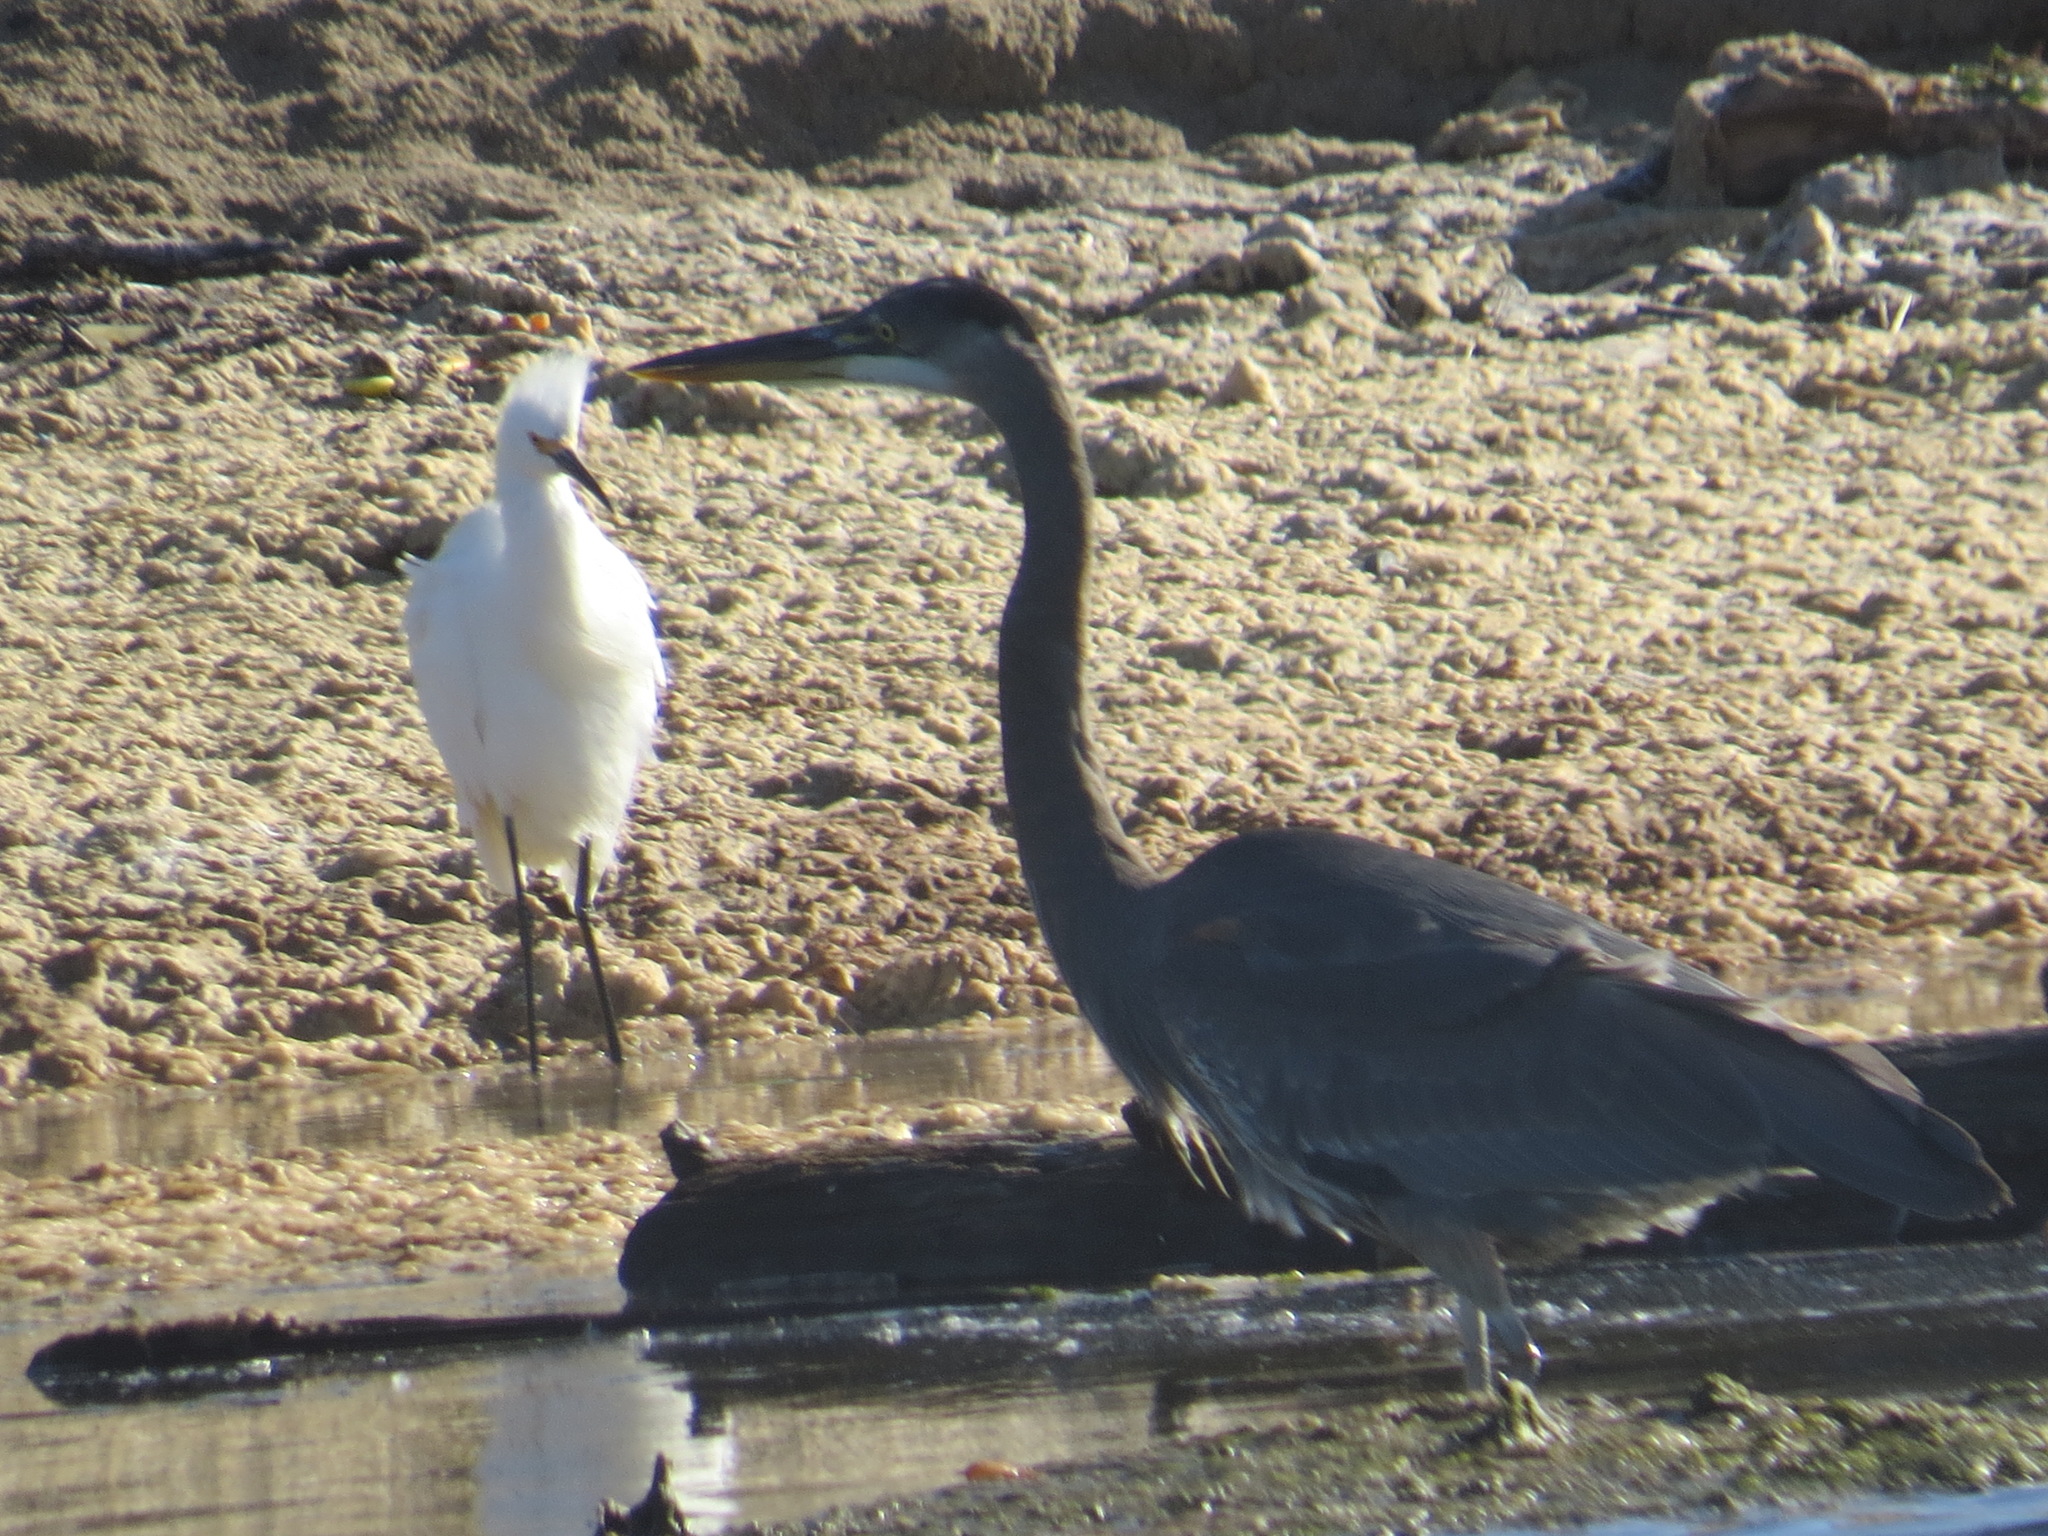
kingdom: Animalia
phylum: Chordata
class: Aves
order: Pelecaniformes
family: Ardeidae
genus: Ardea
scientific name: Ardea herodias
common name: Great blue heron
